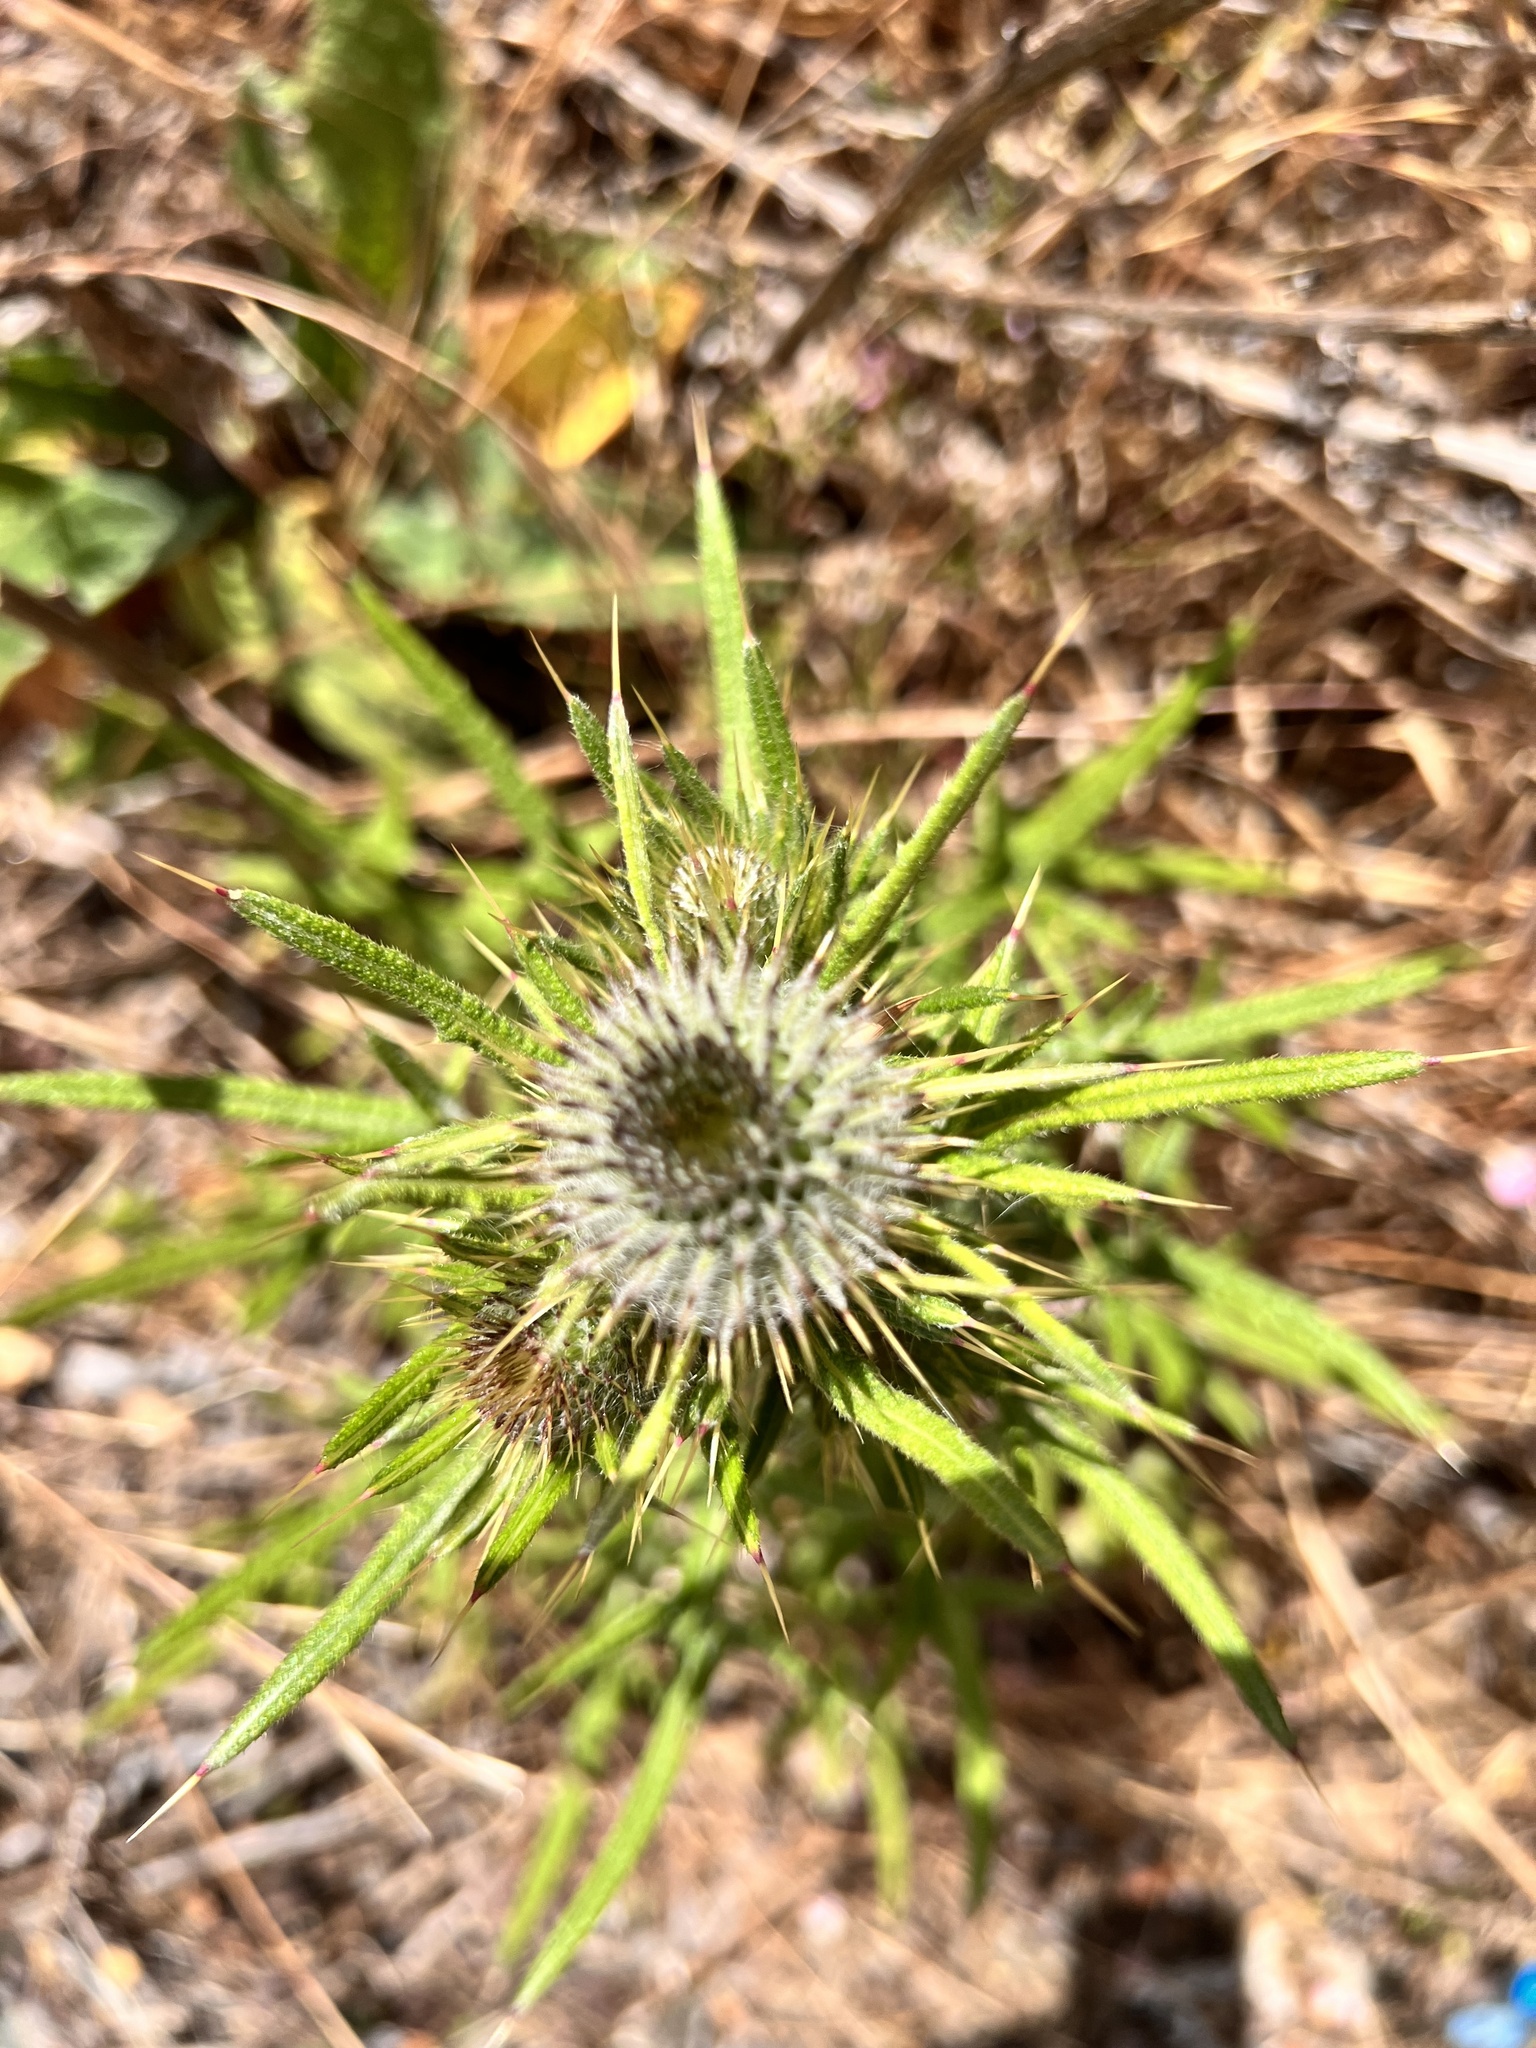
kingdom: Plantae
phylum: Tracheophyta
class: Magnoliopsida
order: Asterales
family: Asteraceae
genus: Cirsium
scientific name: Cirsium vulgare
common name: Bull thistle
